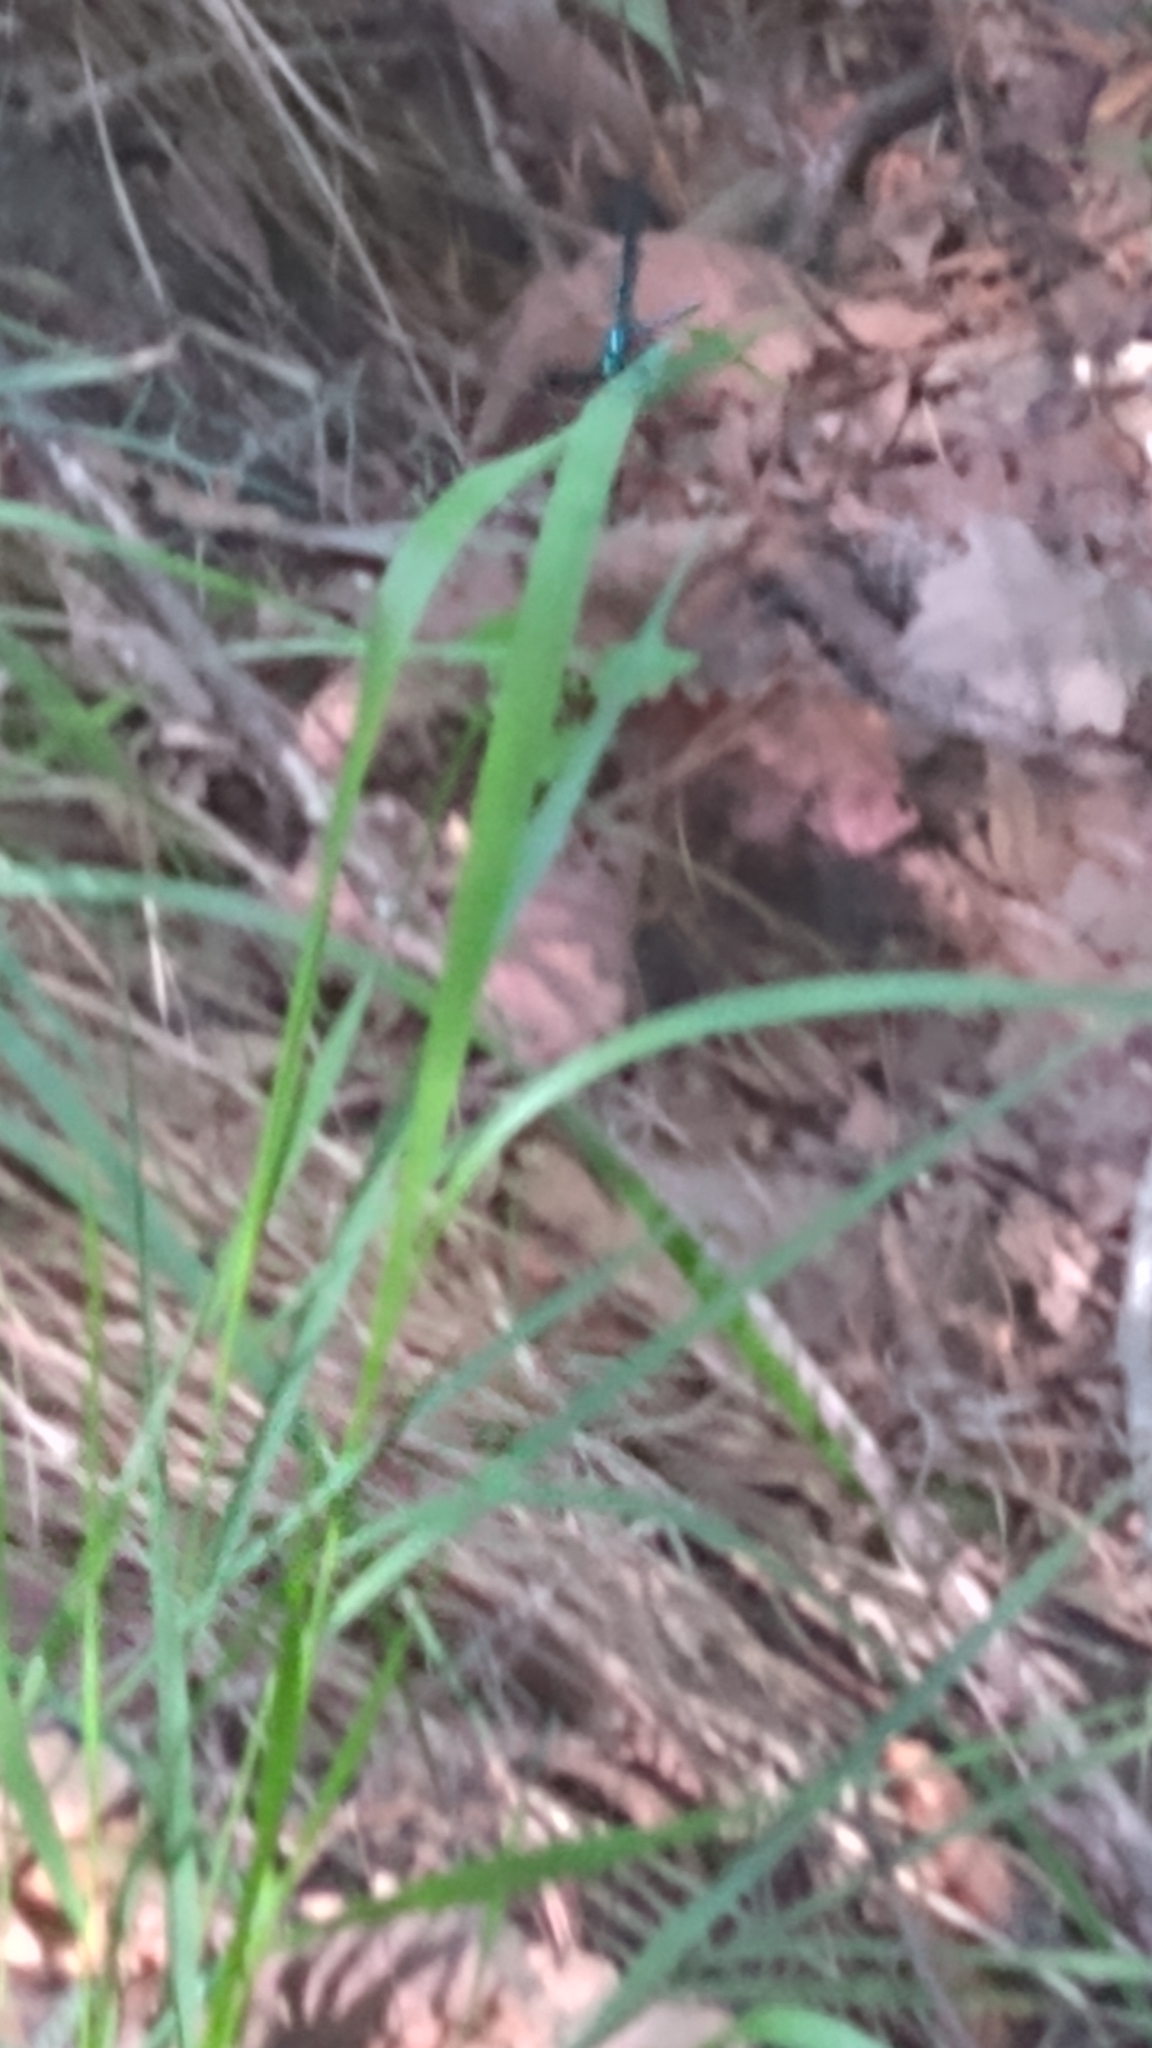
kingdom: Plantae
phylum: Tracheophyta
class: Polypodiopsida
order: Polypodiales
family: Blechnaceae
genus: Lorinseria
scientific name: Lorinseria areolata
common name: Dwarf chain fern
